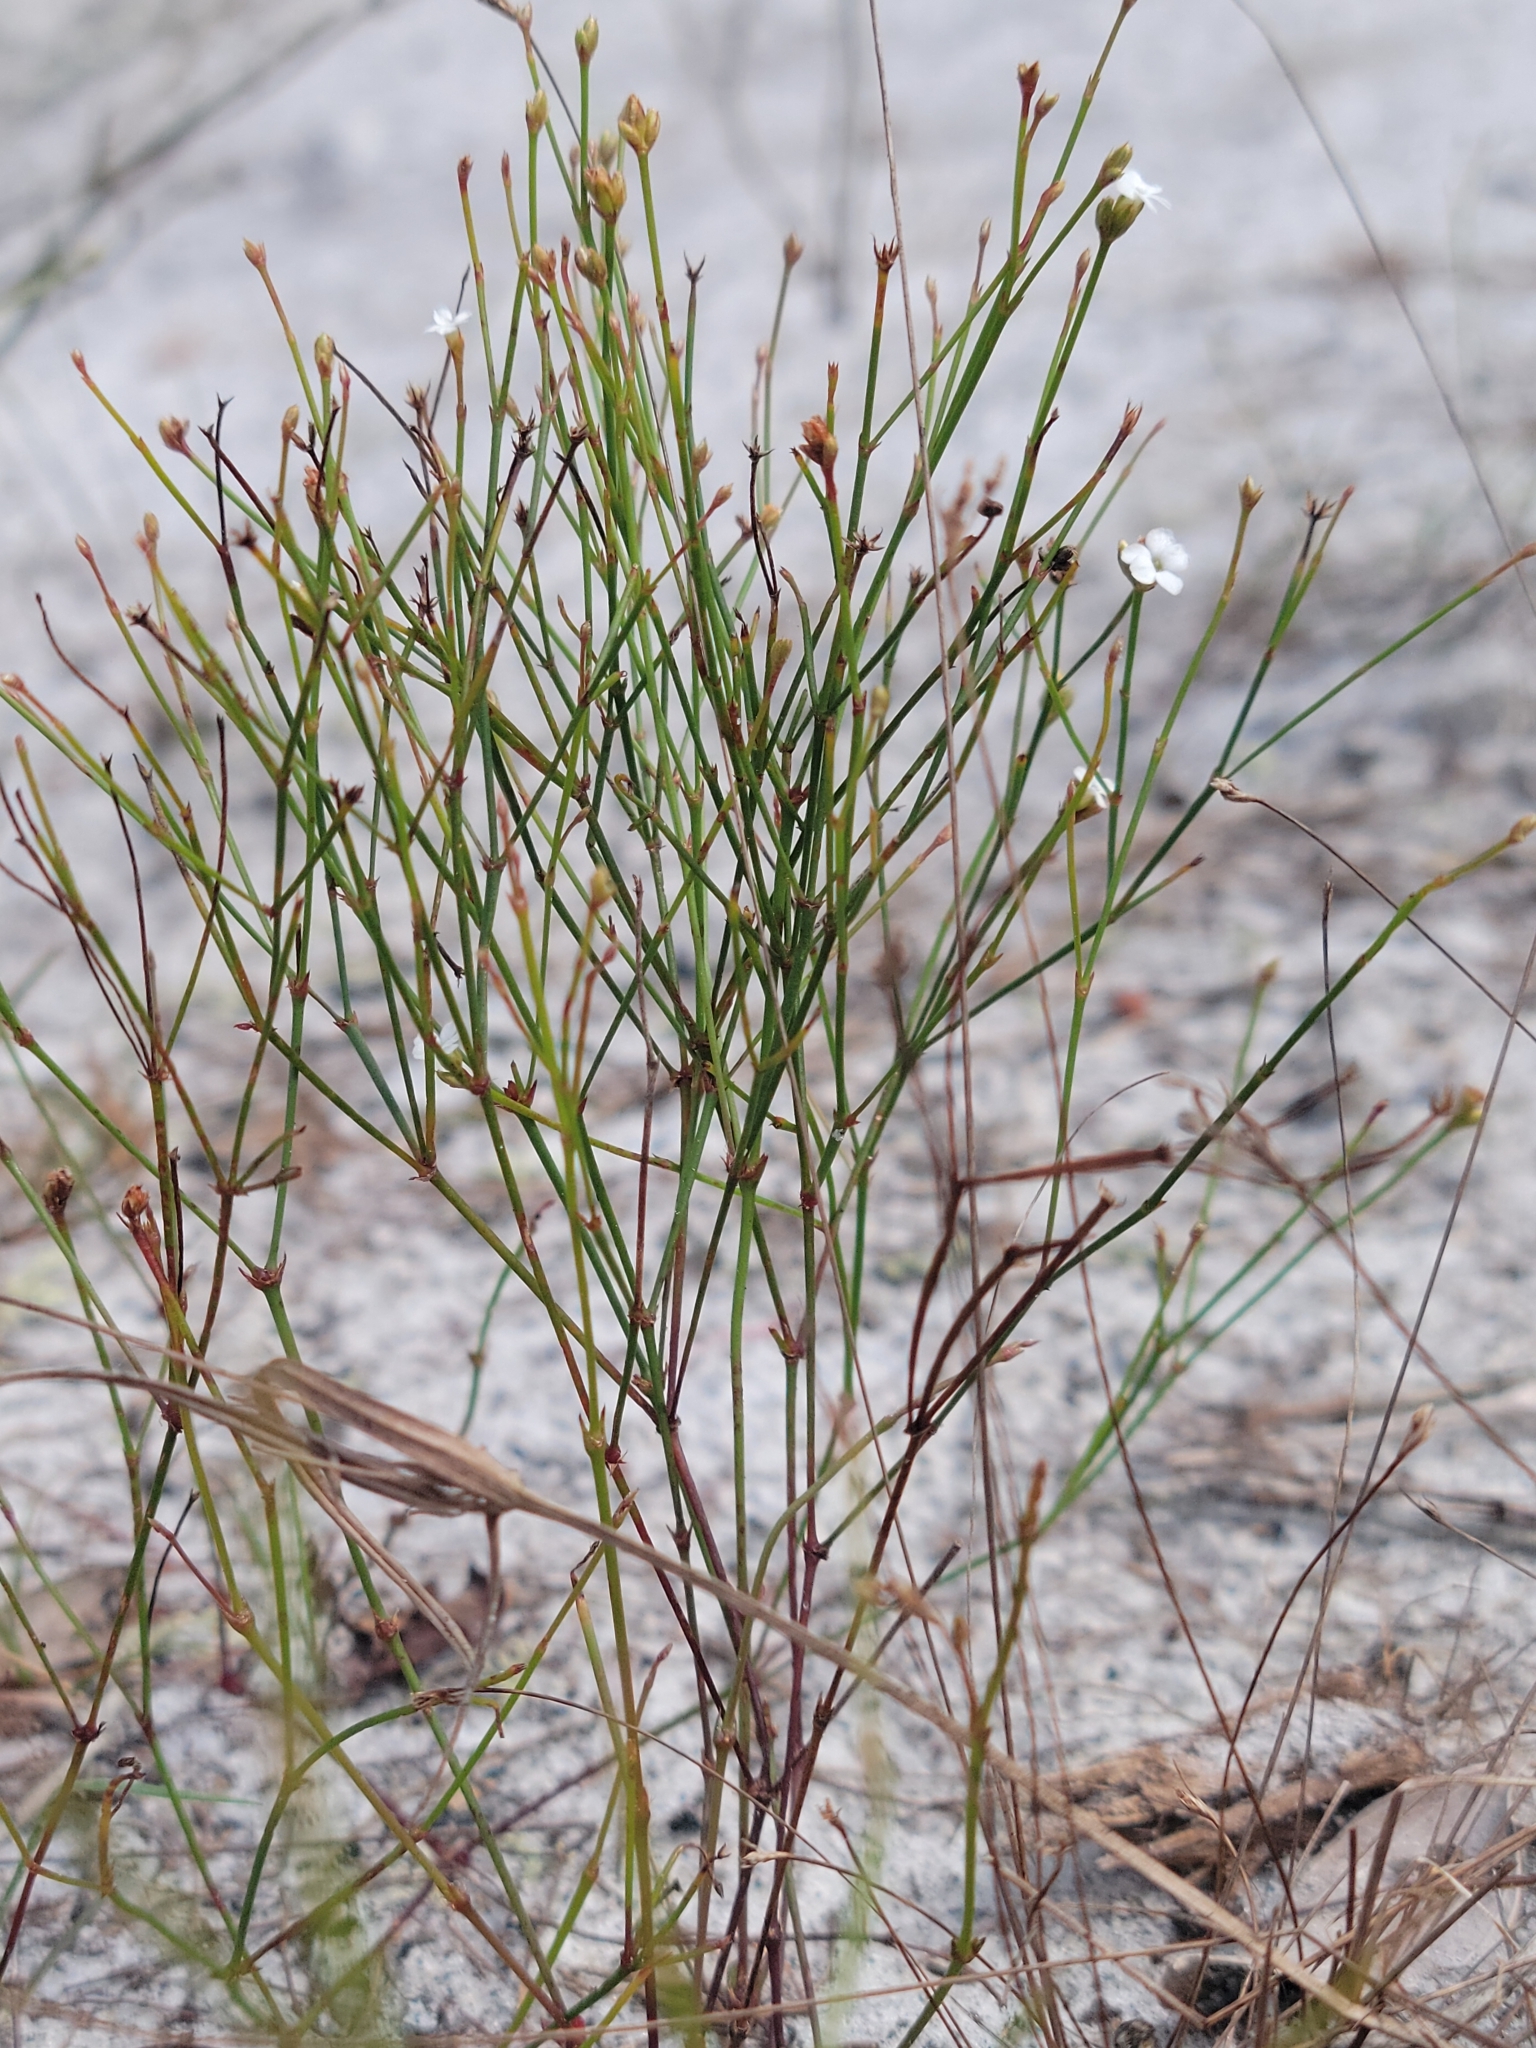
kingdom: Plantae
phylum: Tracheophyta
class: Magnoliopsida
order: Caryophyllales
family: Caryophyllaceae
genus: Stipulicida
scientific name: Stipulicida setacea
